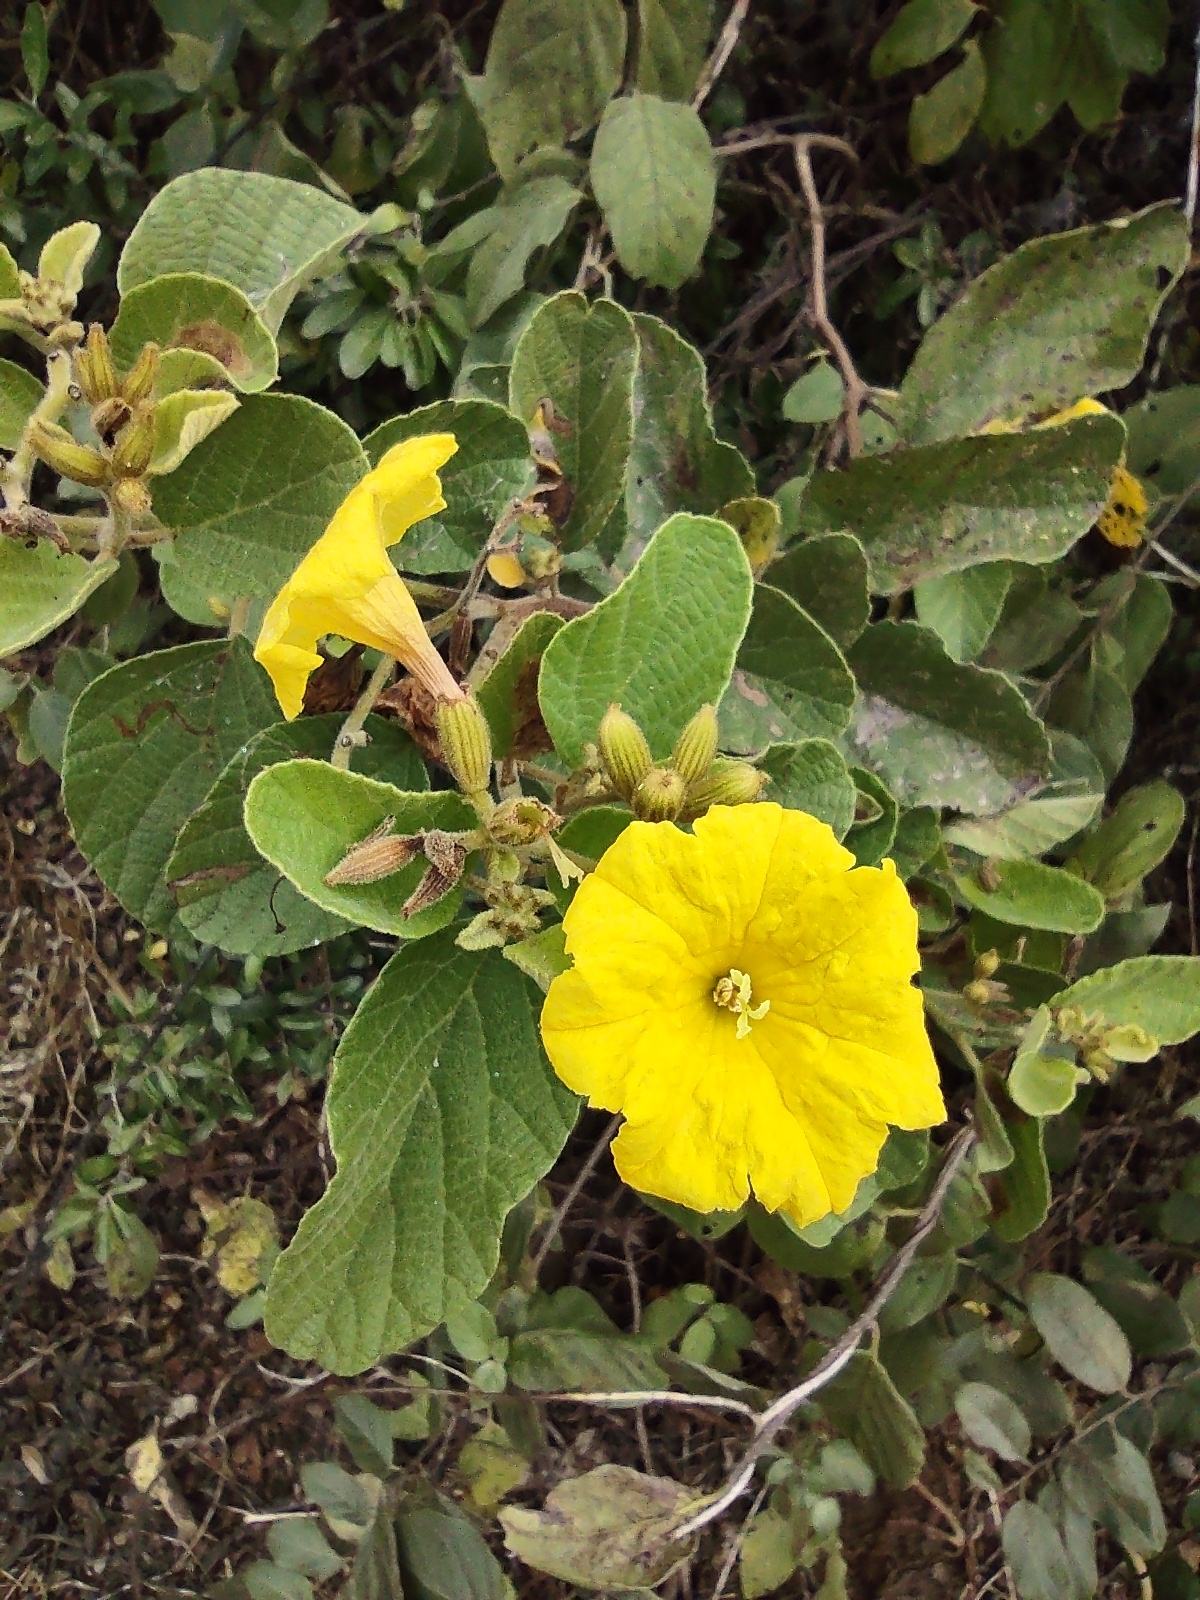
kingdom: Plantae
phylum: Tracheophyta
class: Magnoliopsida
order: Boraginales
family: Cordiaceae
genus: Cordia
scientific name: Cordia lutea
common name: Yellow geiger
